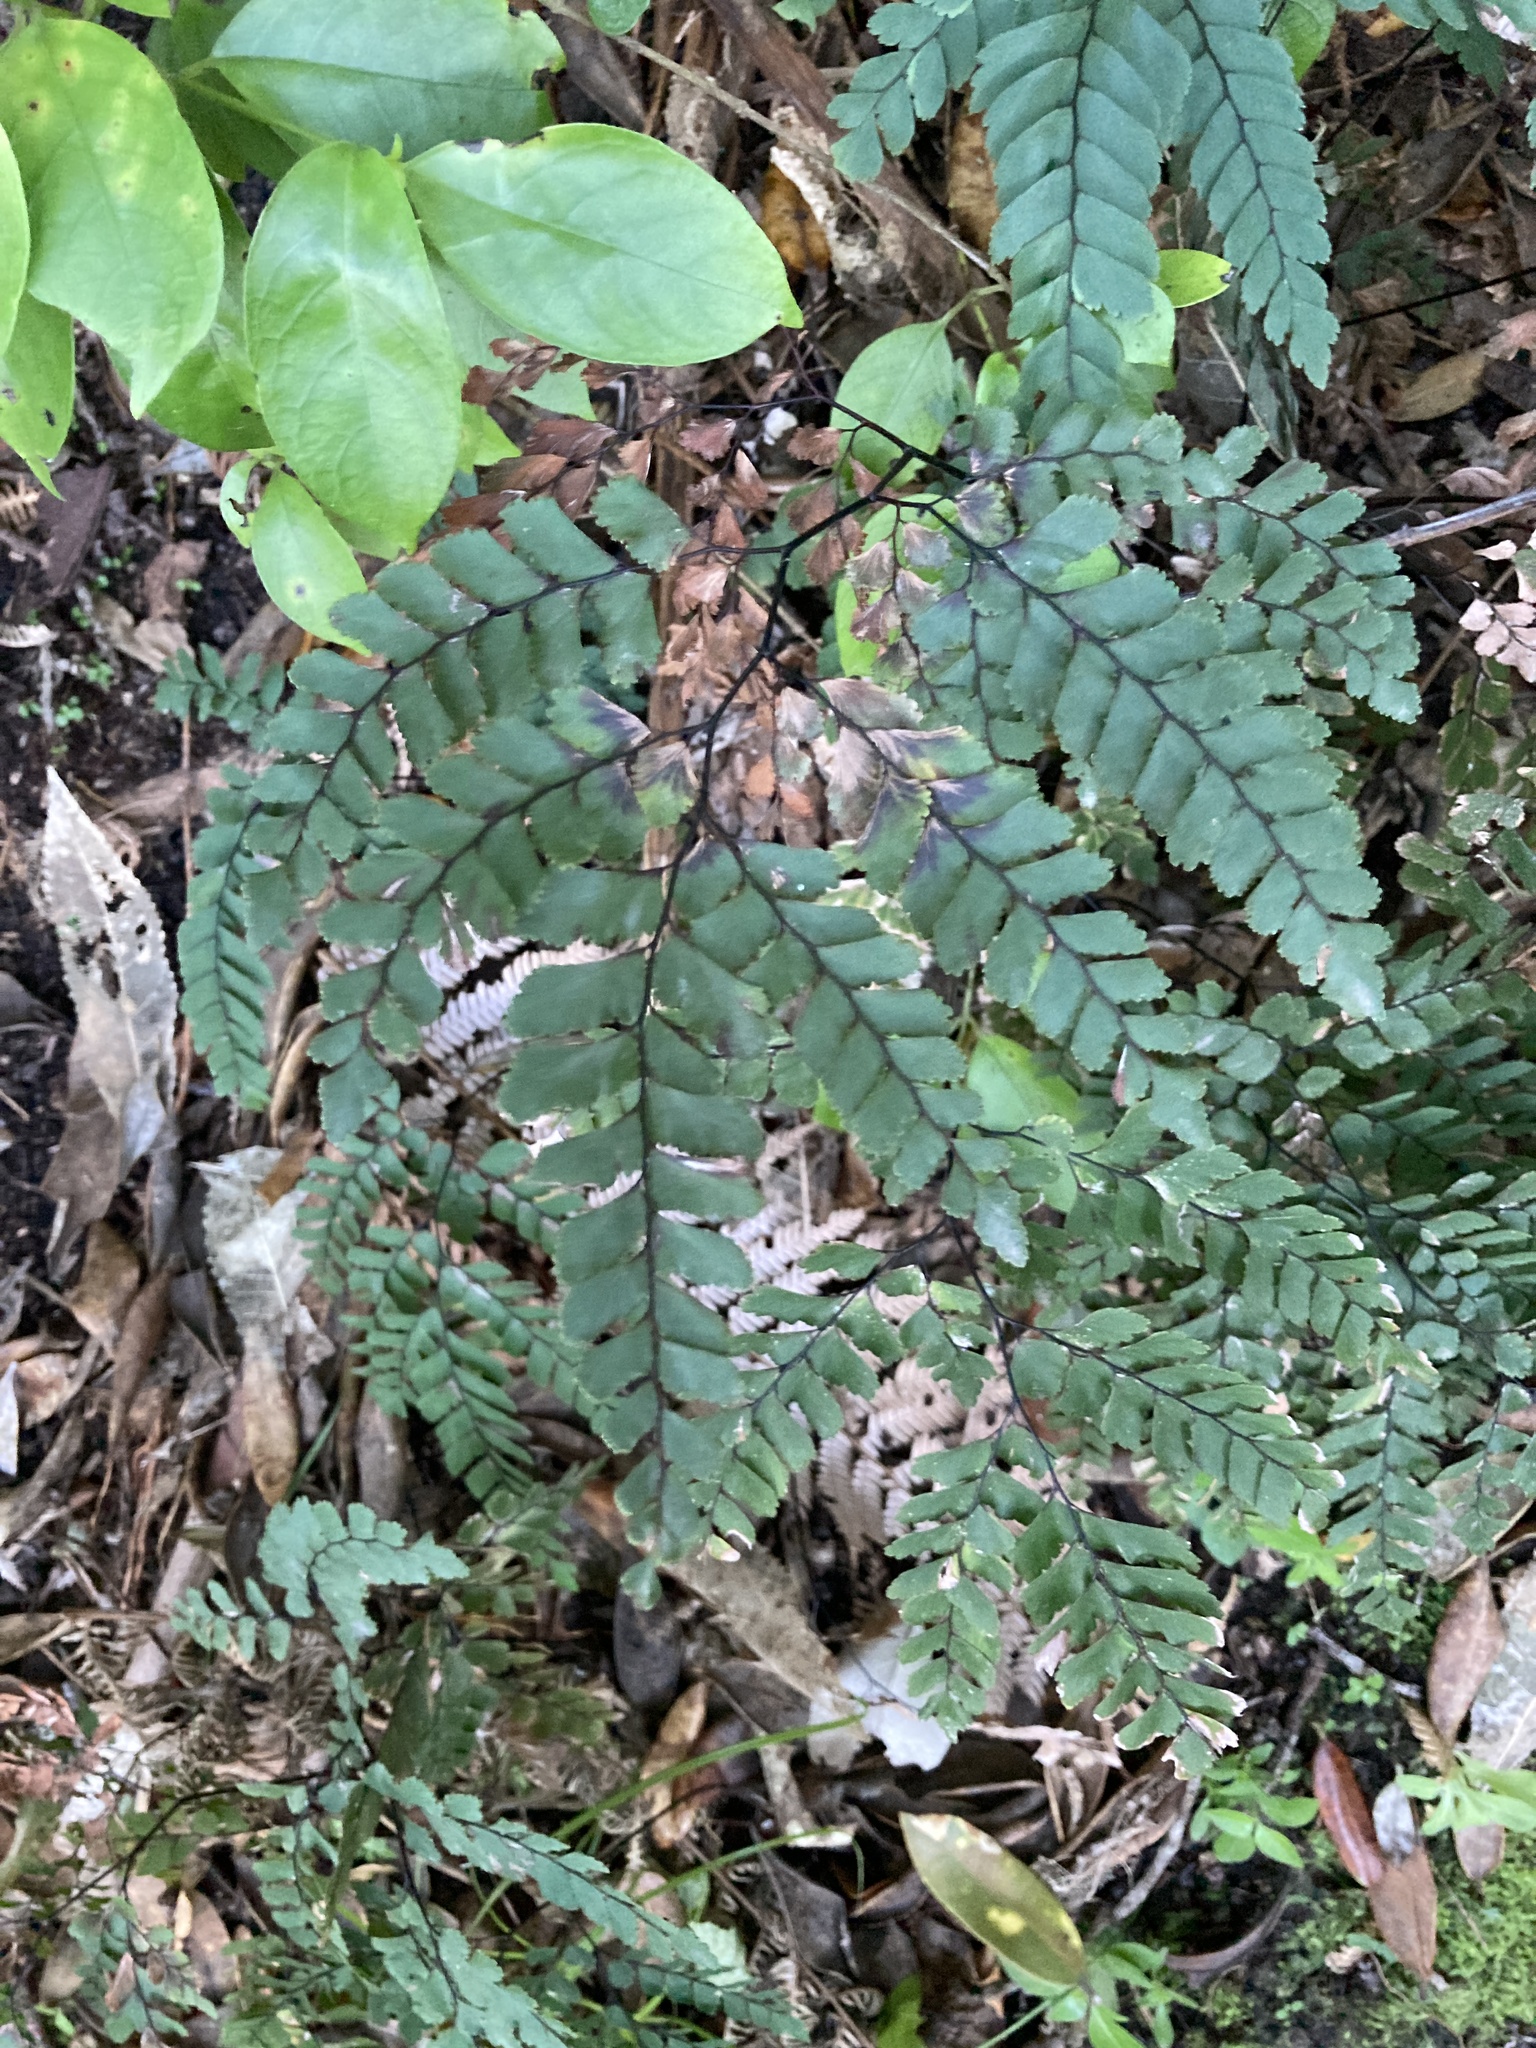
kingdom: Plantae
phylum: Tracheophyta
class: Polypodiopsida
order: Polypodiales
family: Pteridaceae
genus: Adiantum
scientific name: Adiantum cunninghamii
